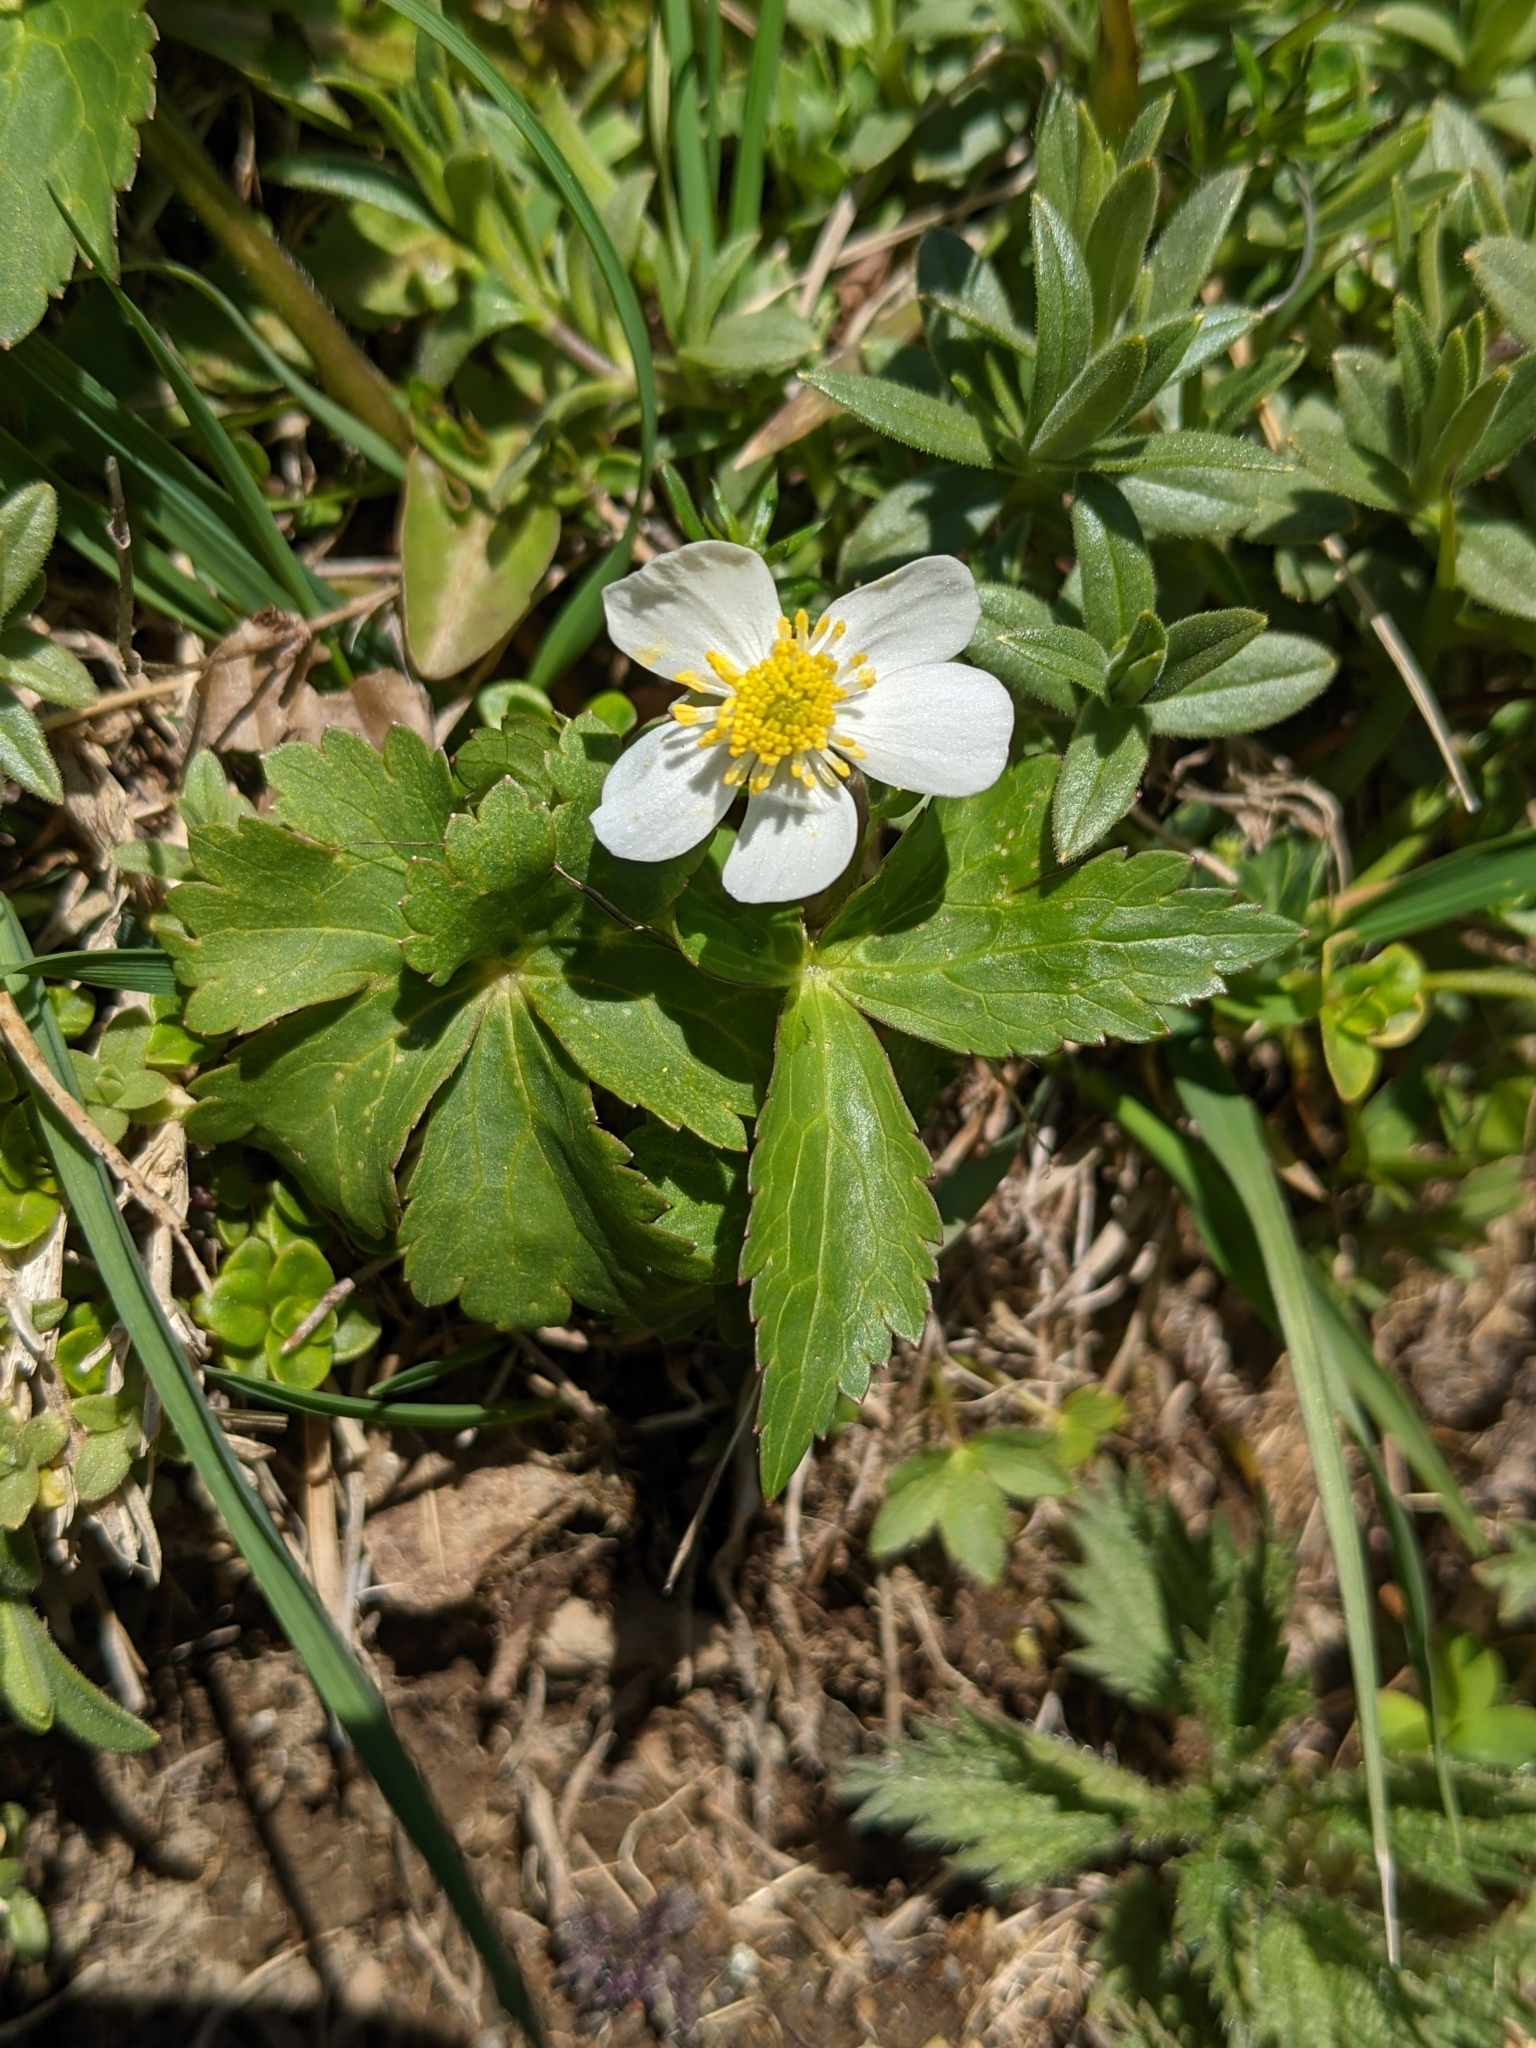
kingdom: Plantae
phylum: Tracheophyta
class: Magnoliopsida
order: Ranunculales
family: Ranunculaceae
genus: Ranunculus
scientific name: Ranunculus aconitifolius
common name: Aconite-leaved buttercup
